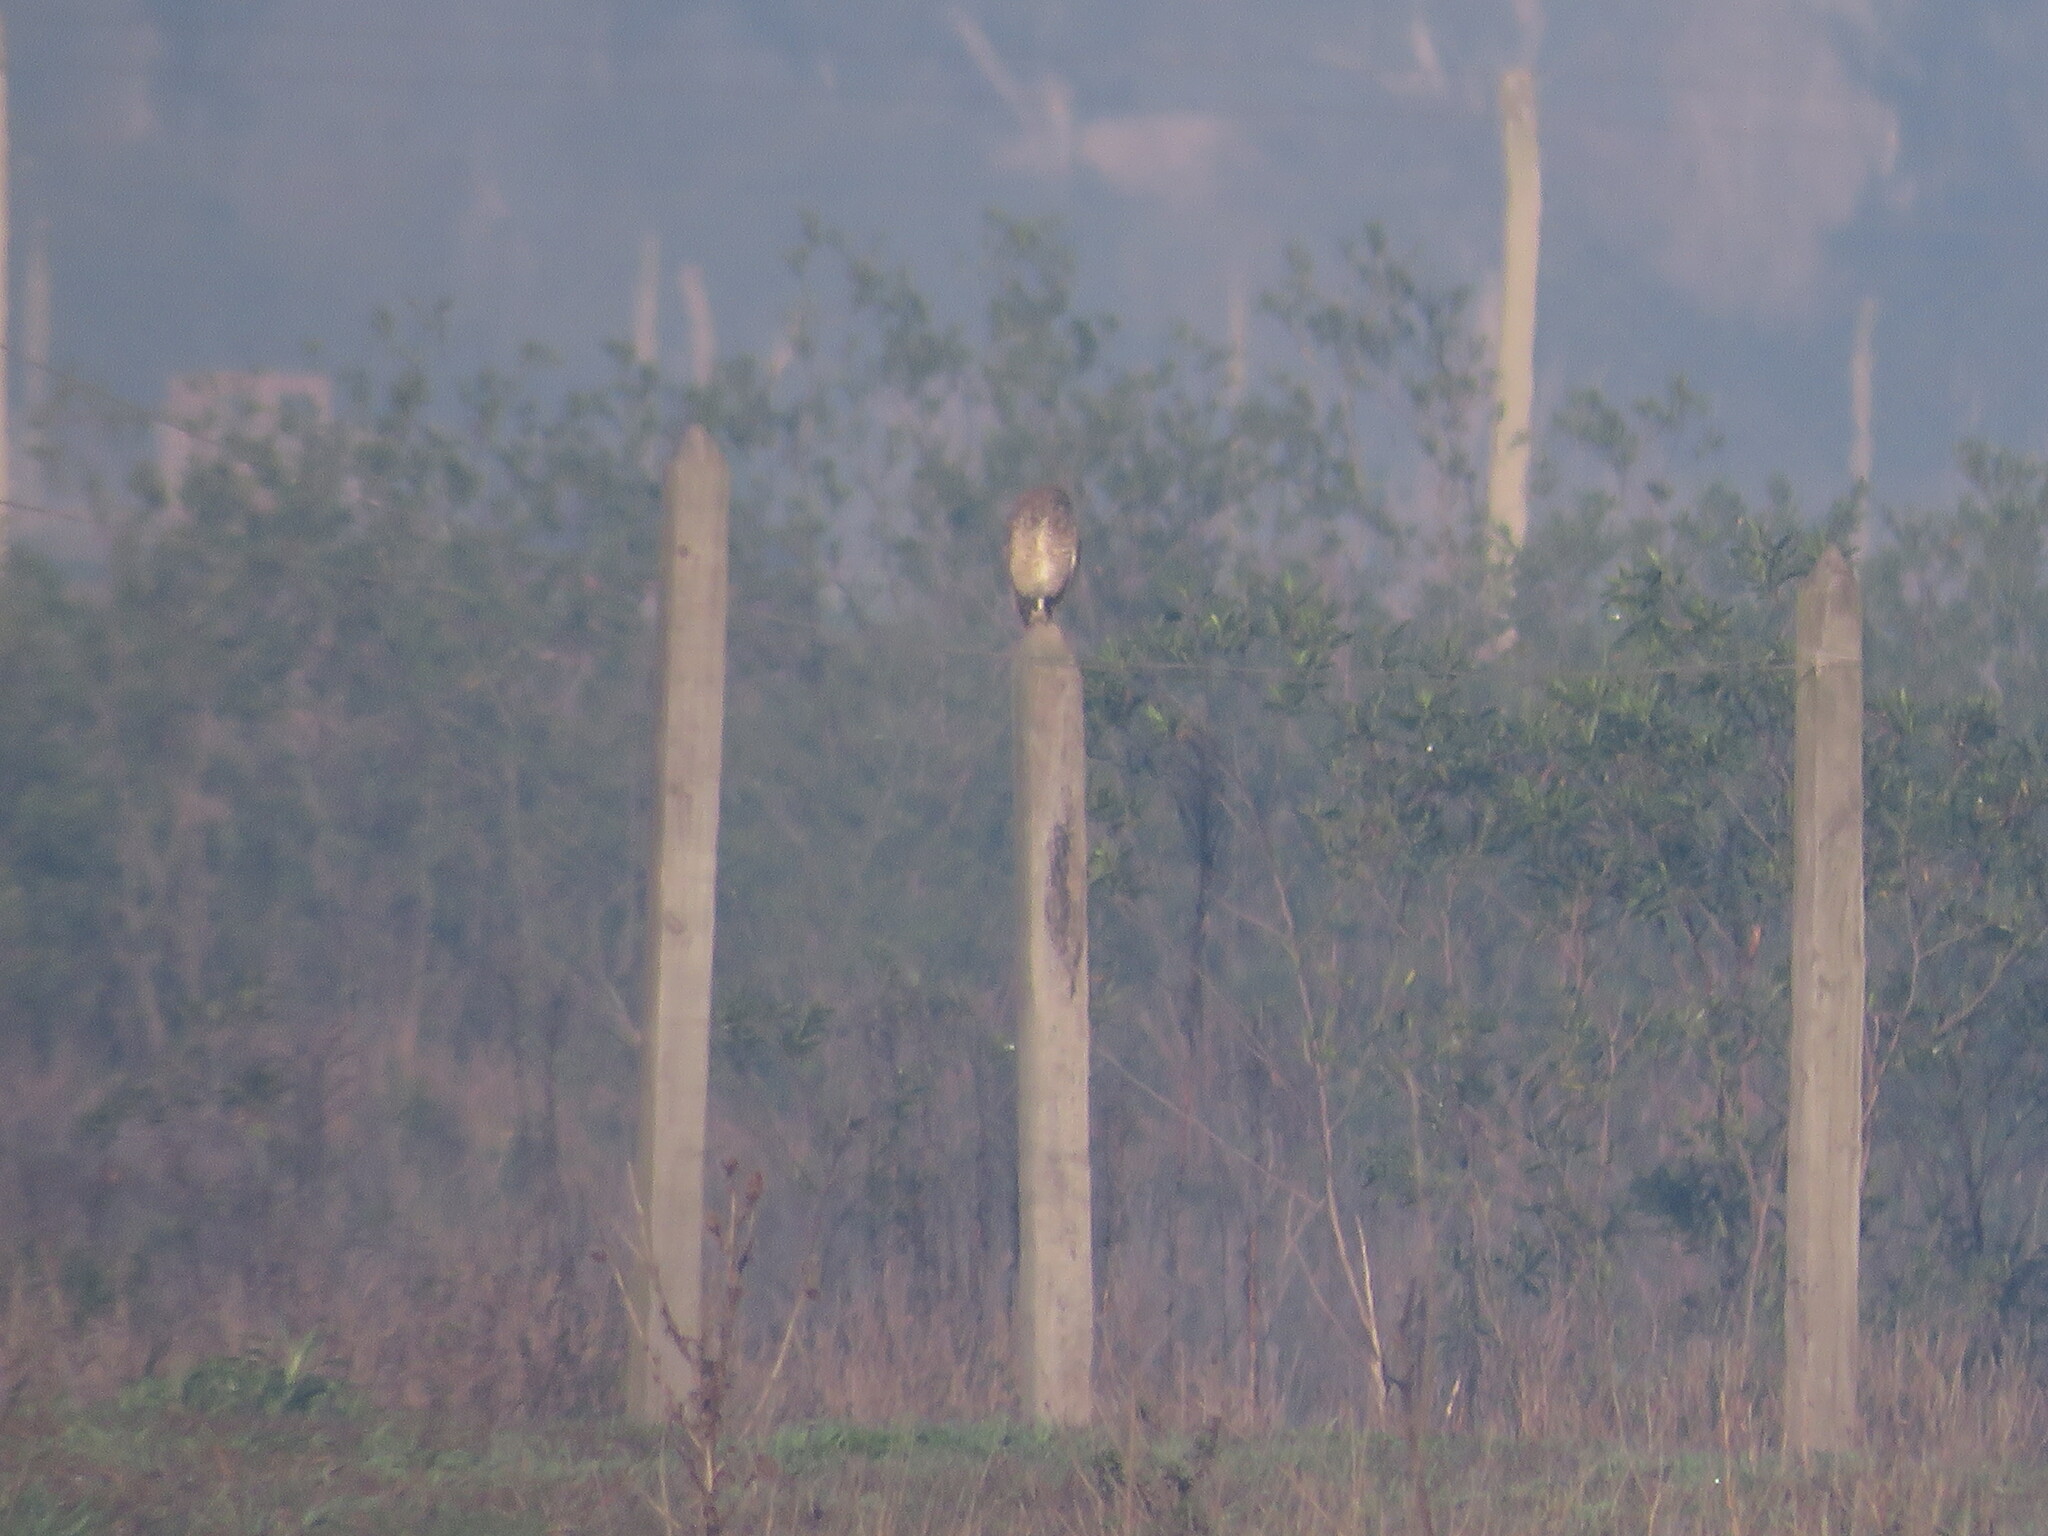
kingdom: Animalia
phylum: Chordata
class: Aves
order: Strigiformes
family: Strigidae
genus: Athene
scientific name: Athene cunicularia
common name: Burrowing owl
